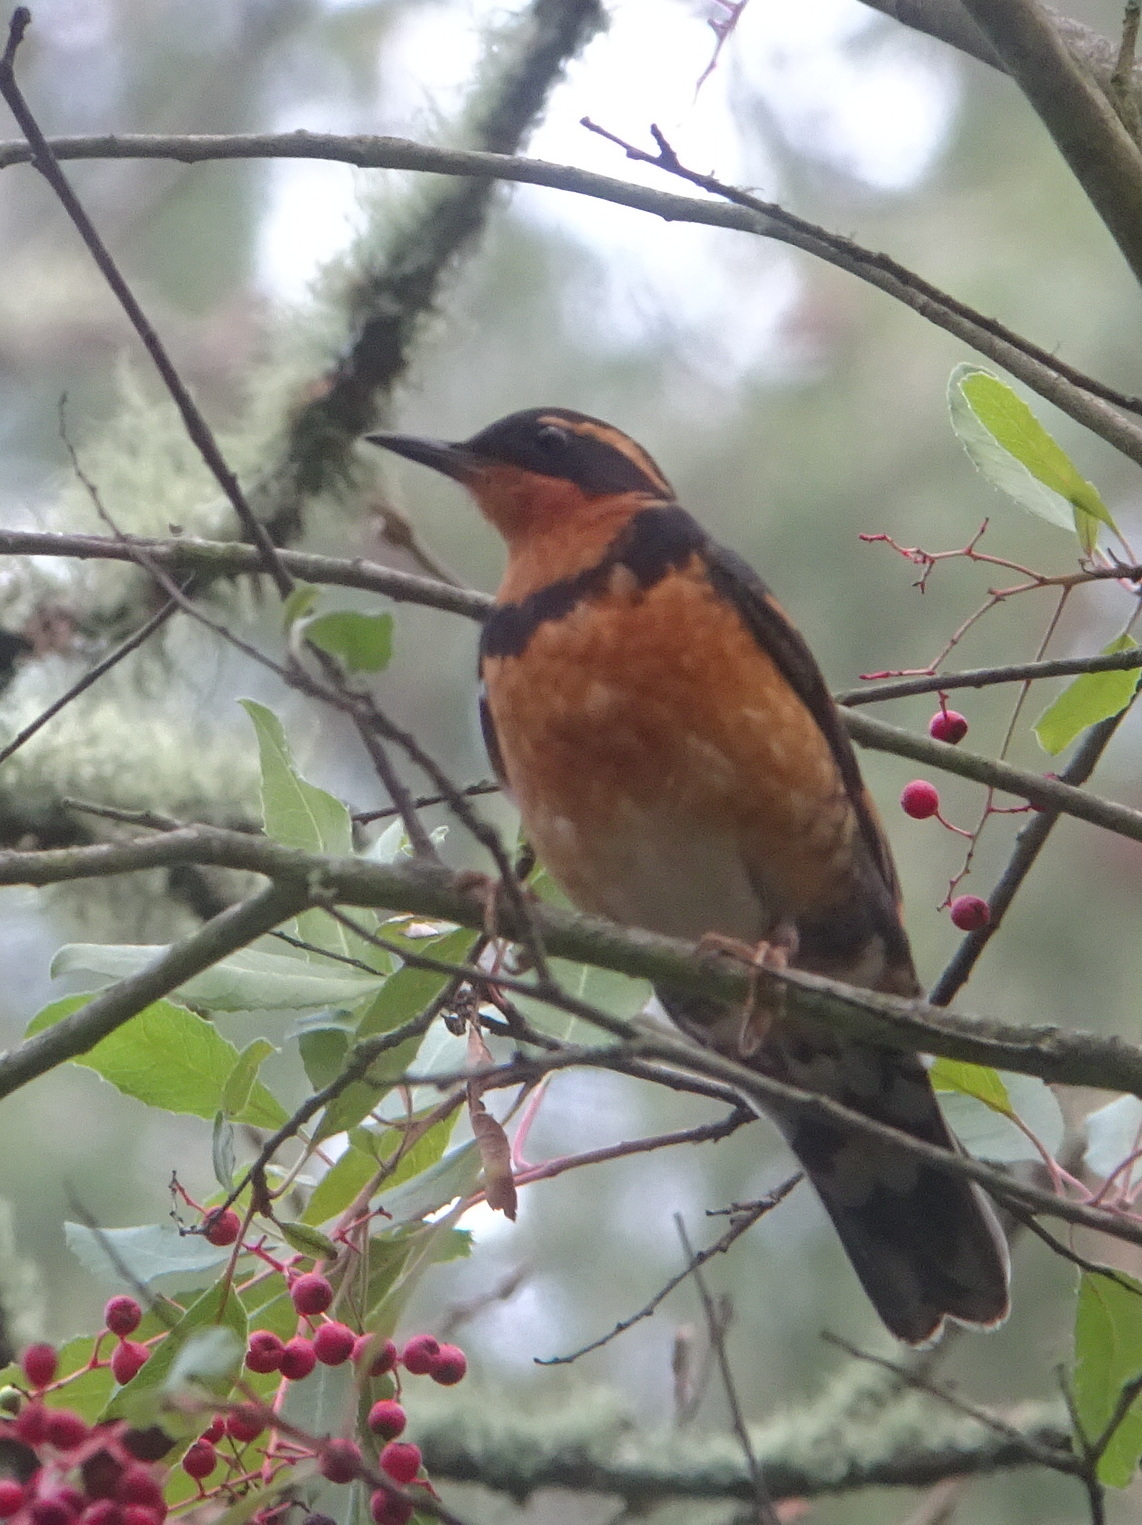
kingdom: Animalia
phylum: Chordata
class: Aves
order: Passeriformes
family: Turdidae
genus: Ixoreus
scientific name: Ixoreus naevius
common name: Varied thrush
